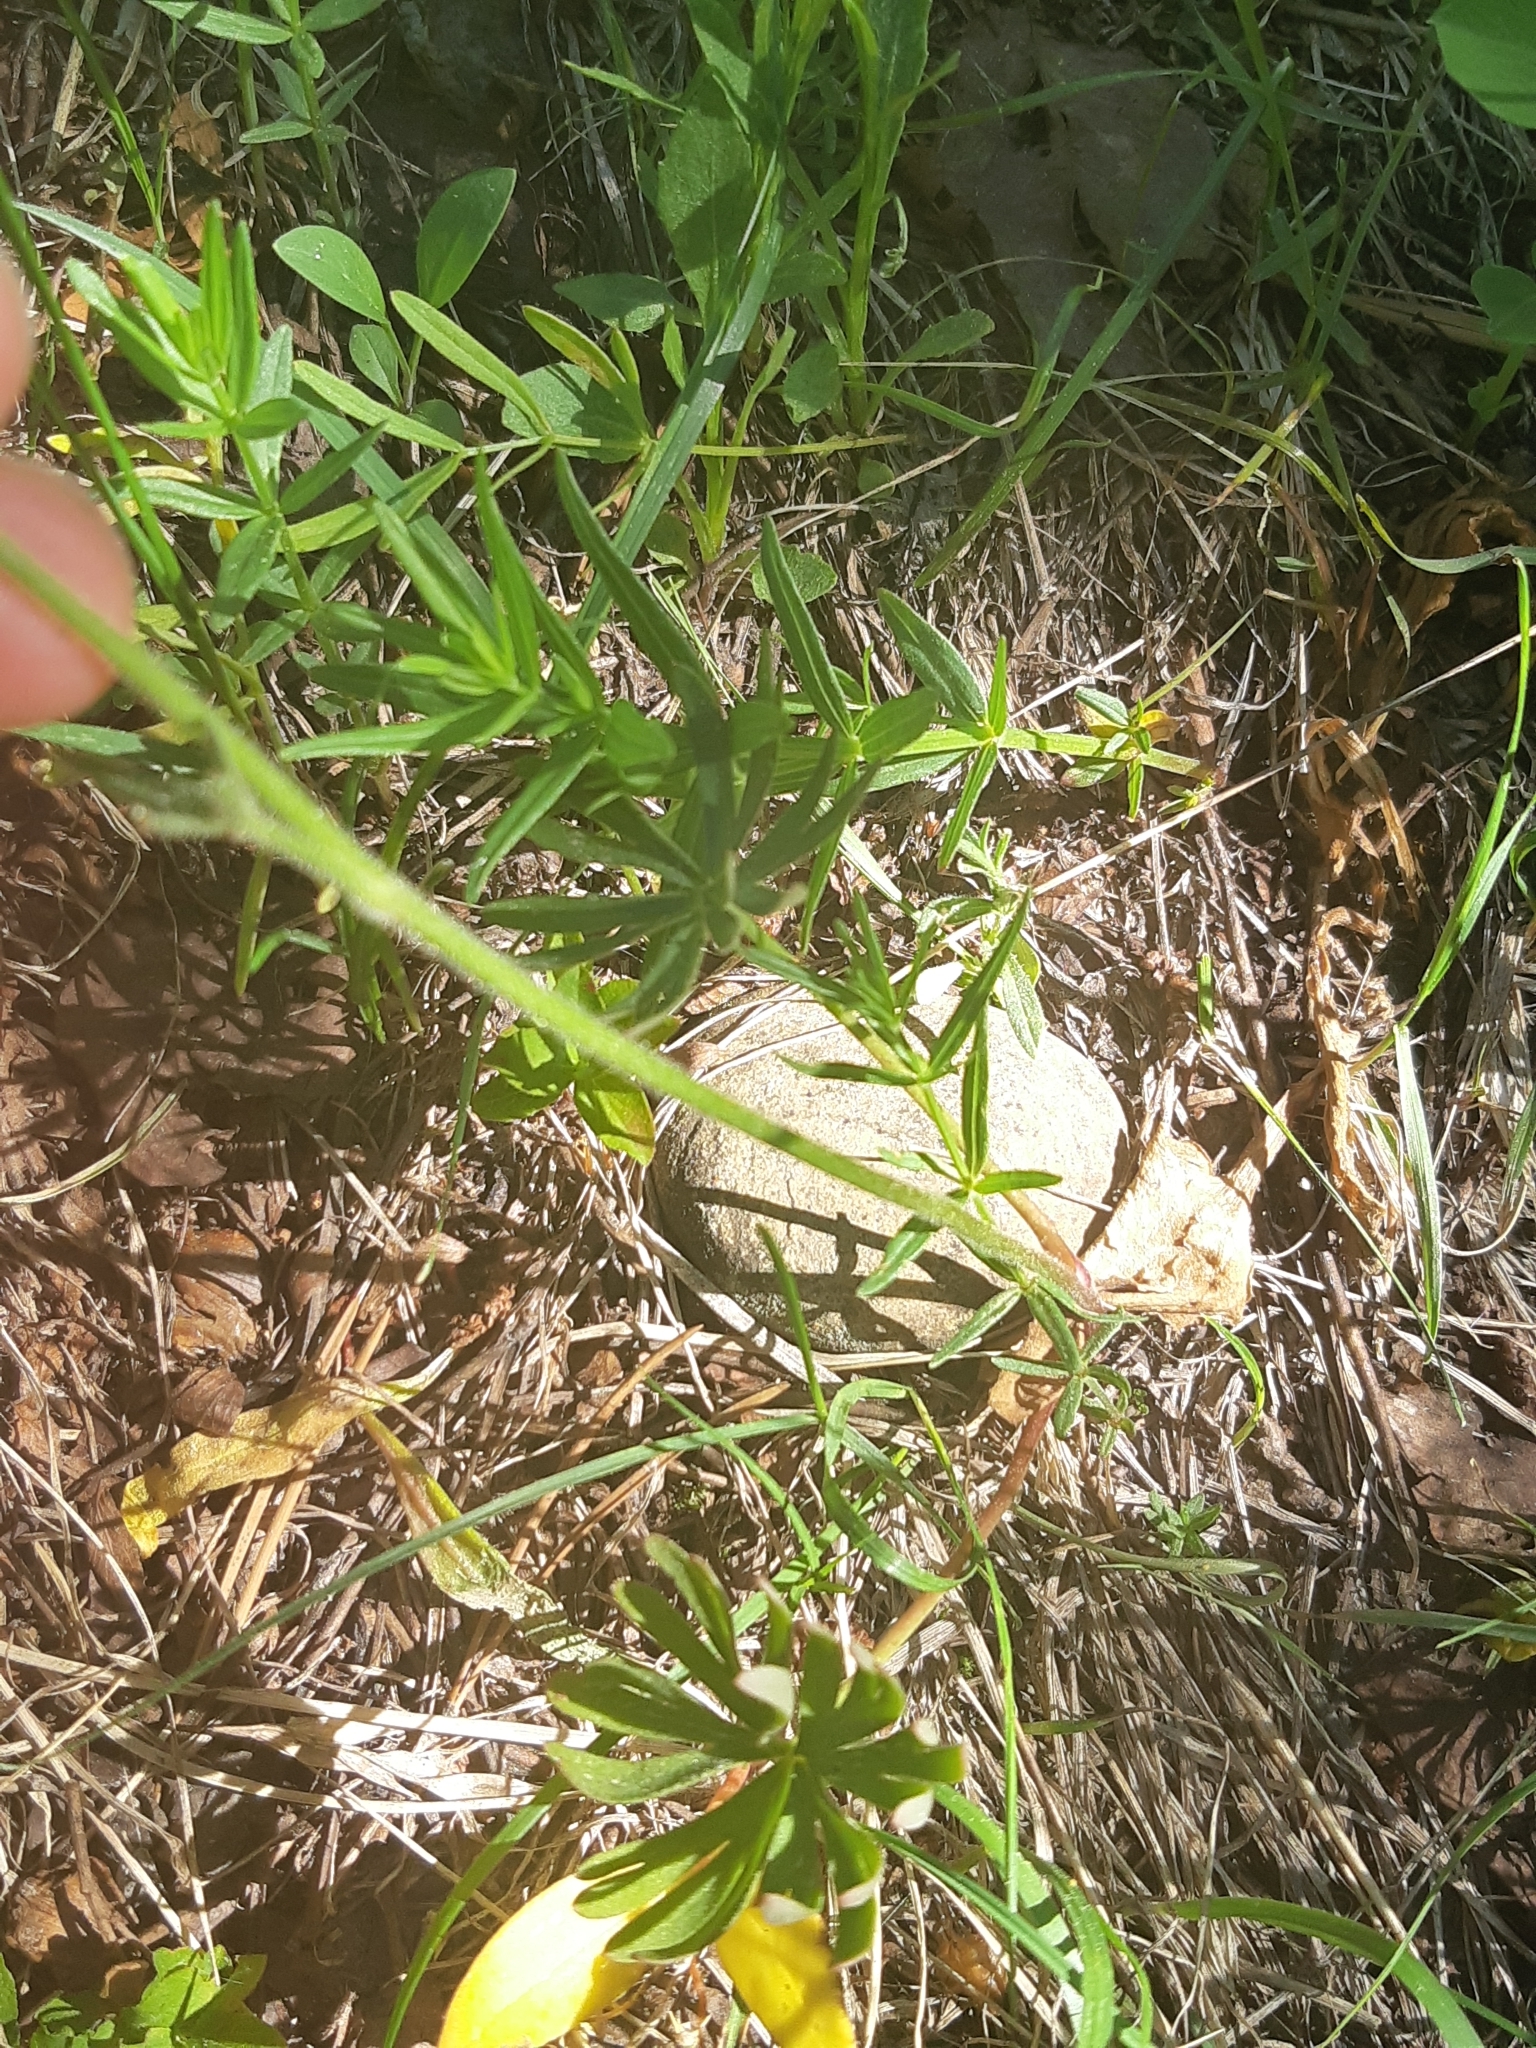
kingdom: Plantae
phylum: Tracheophyta
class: Magnoliopsida
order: Fabales
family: Fabaceae
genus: Astragalus
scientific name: Astragalus agrestis
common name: Field milk-vetch
